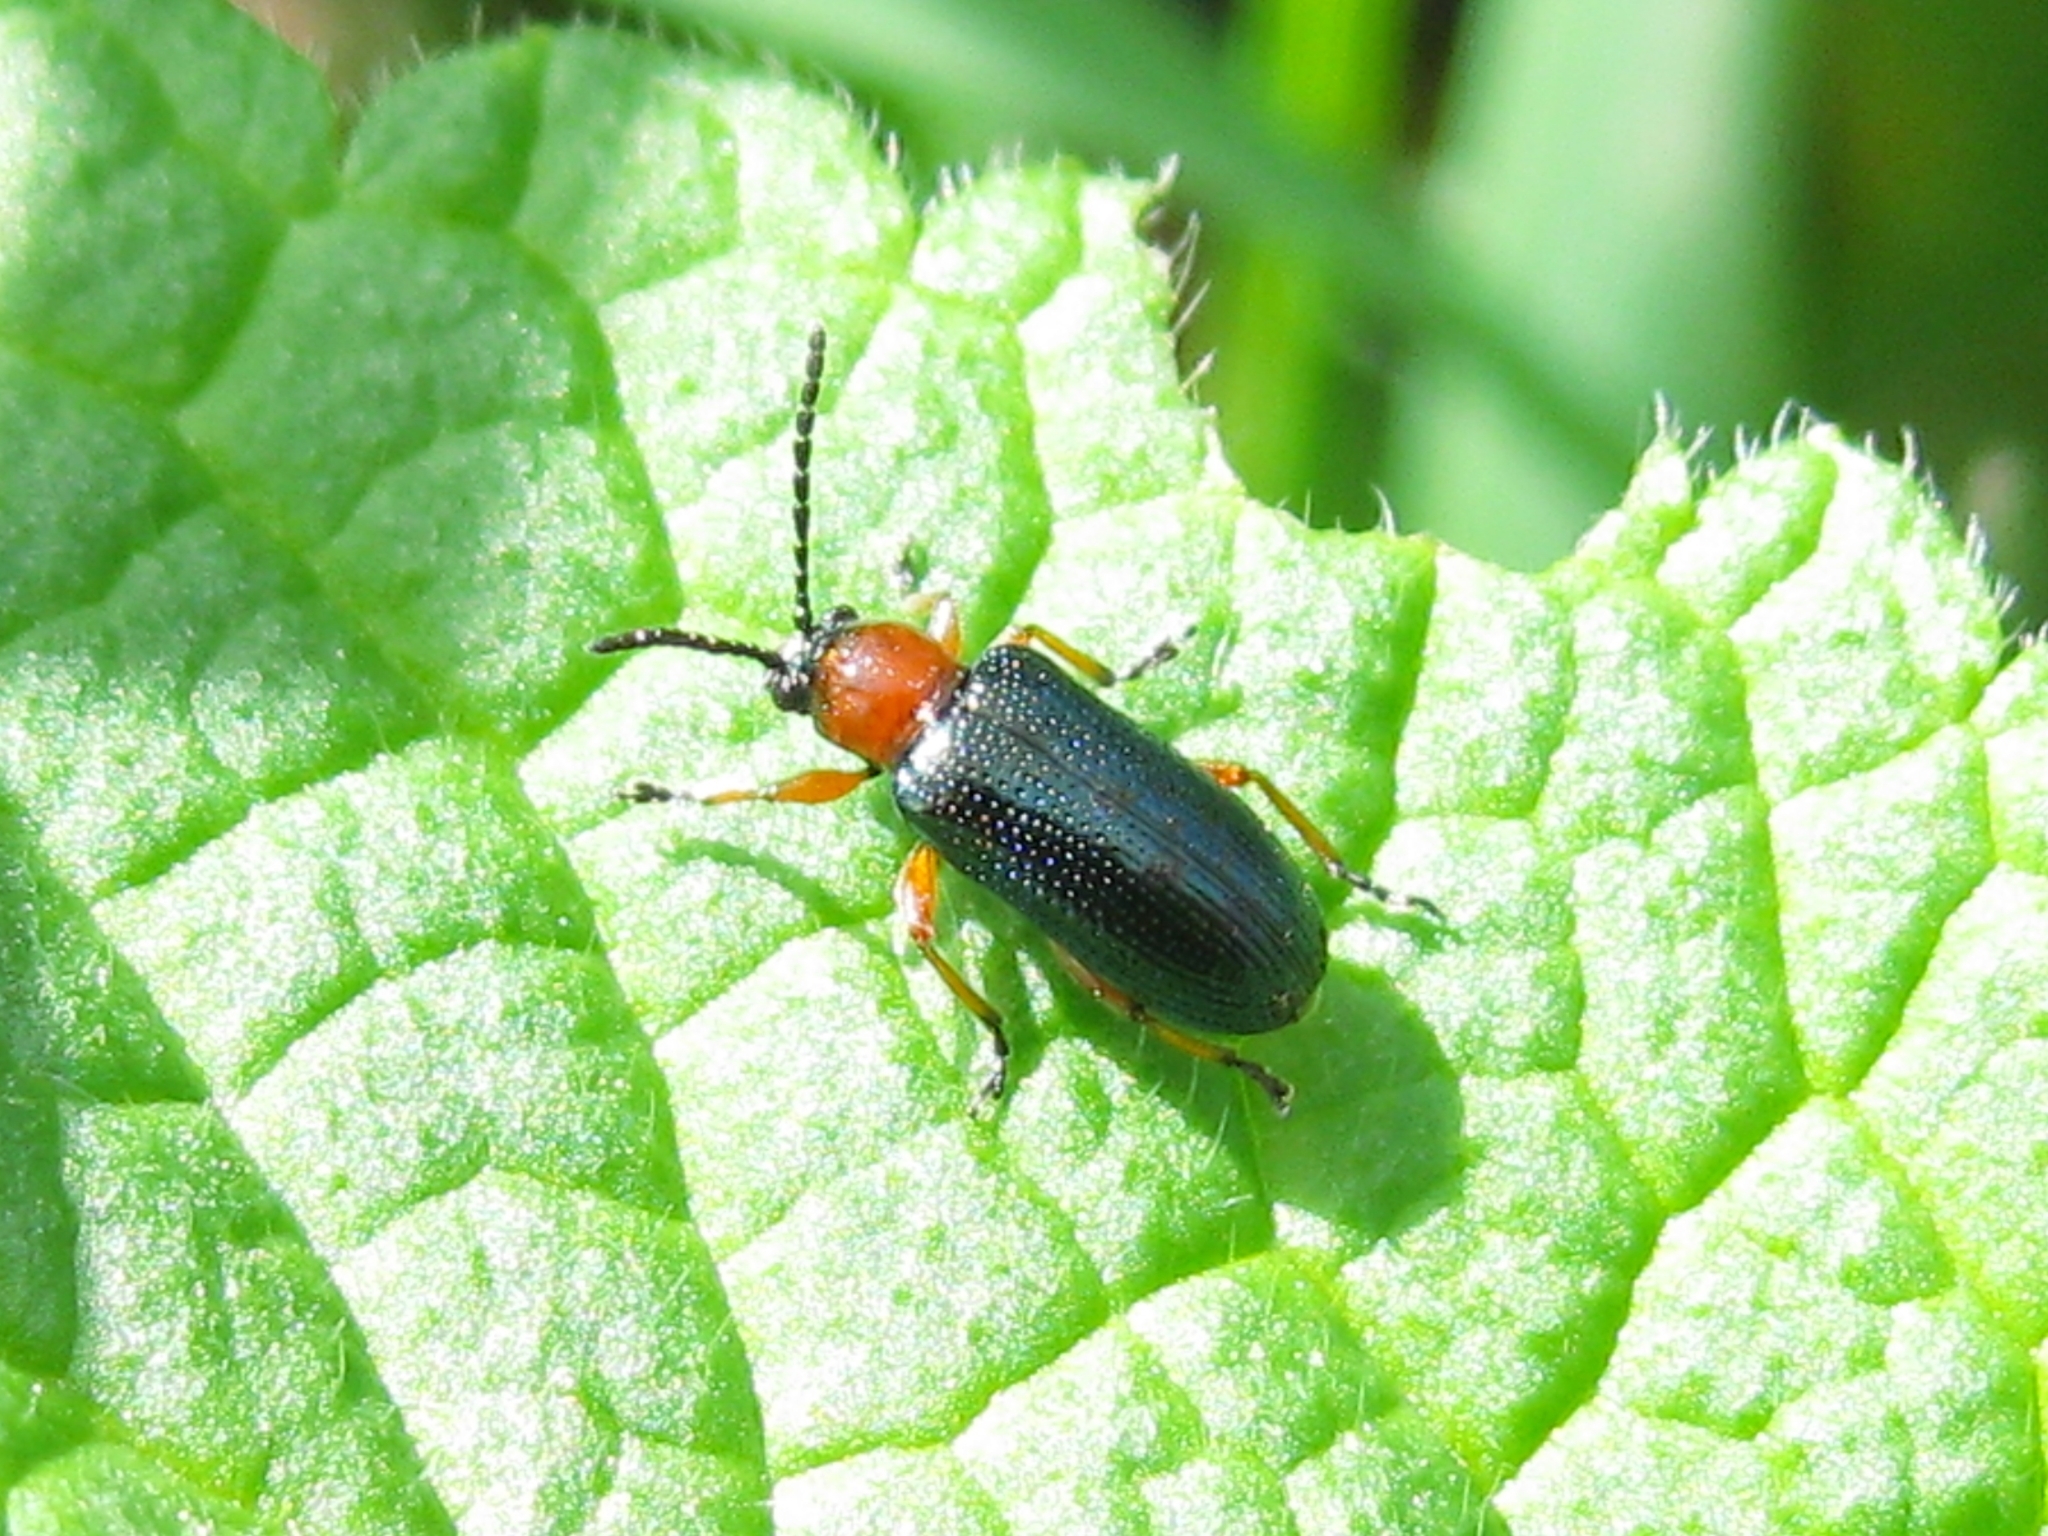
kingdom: Animalia
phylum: Arthropoda
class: Insecta
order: Coleoptera
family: Chrysomelidae
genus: Oulema
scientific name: Oulema
